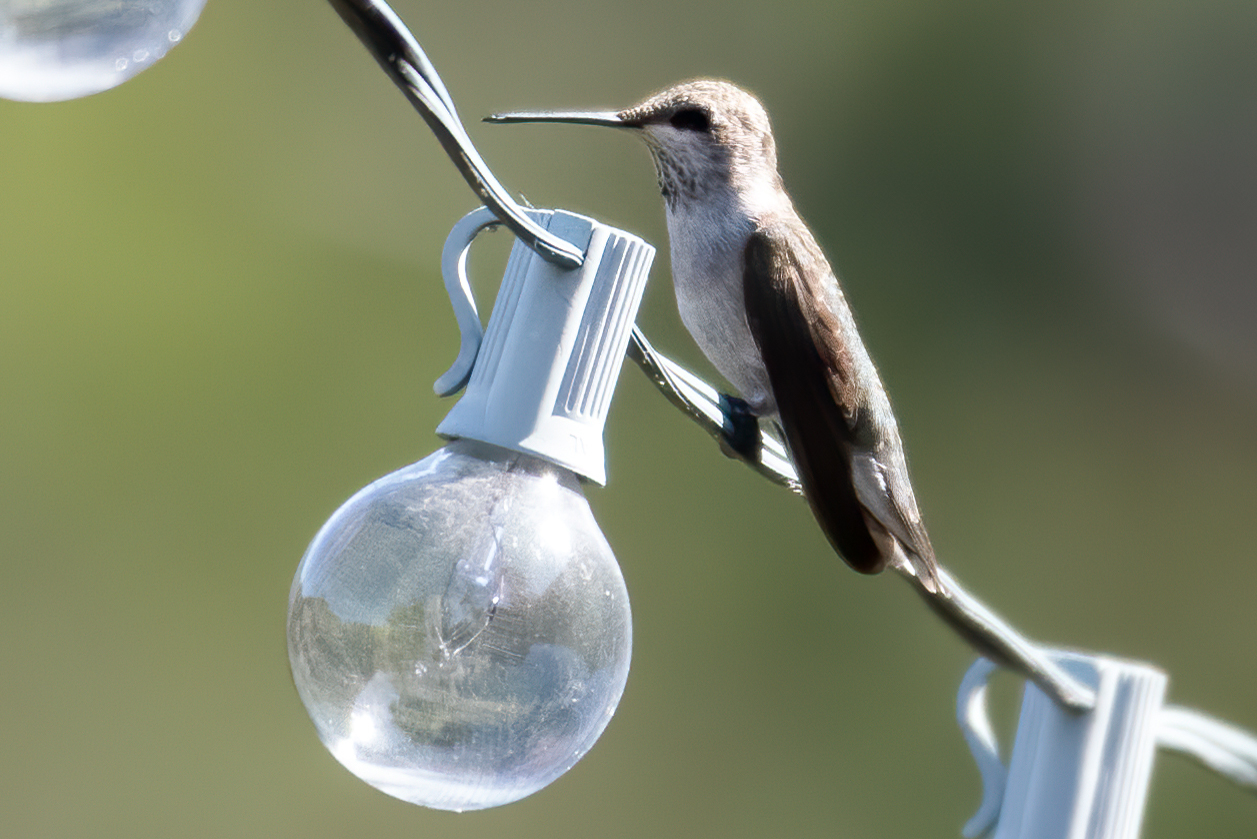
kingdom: Animalia
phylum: Chordata
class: Aves
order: Apodiformes
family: Trochilidae
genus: Archilochus
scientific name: Archilochus alexandri
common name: Black-chinned hummingbird
